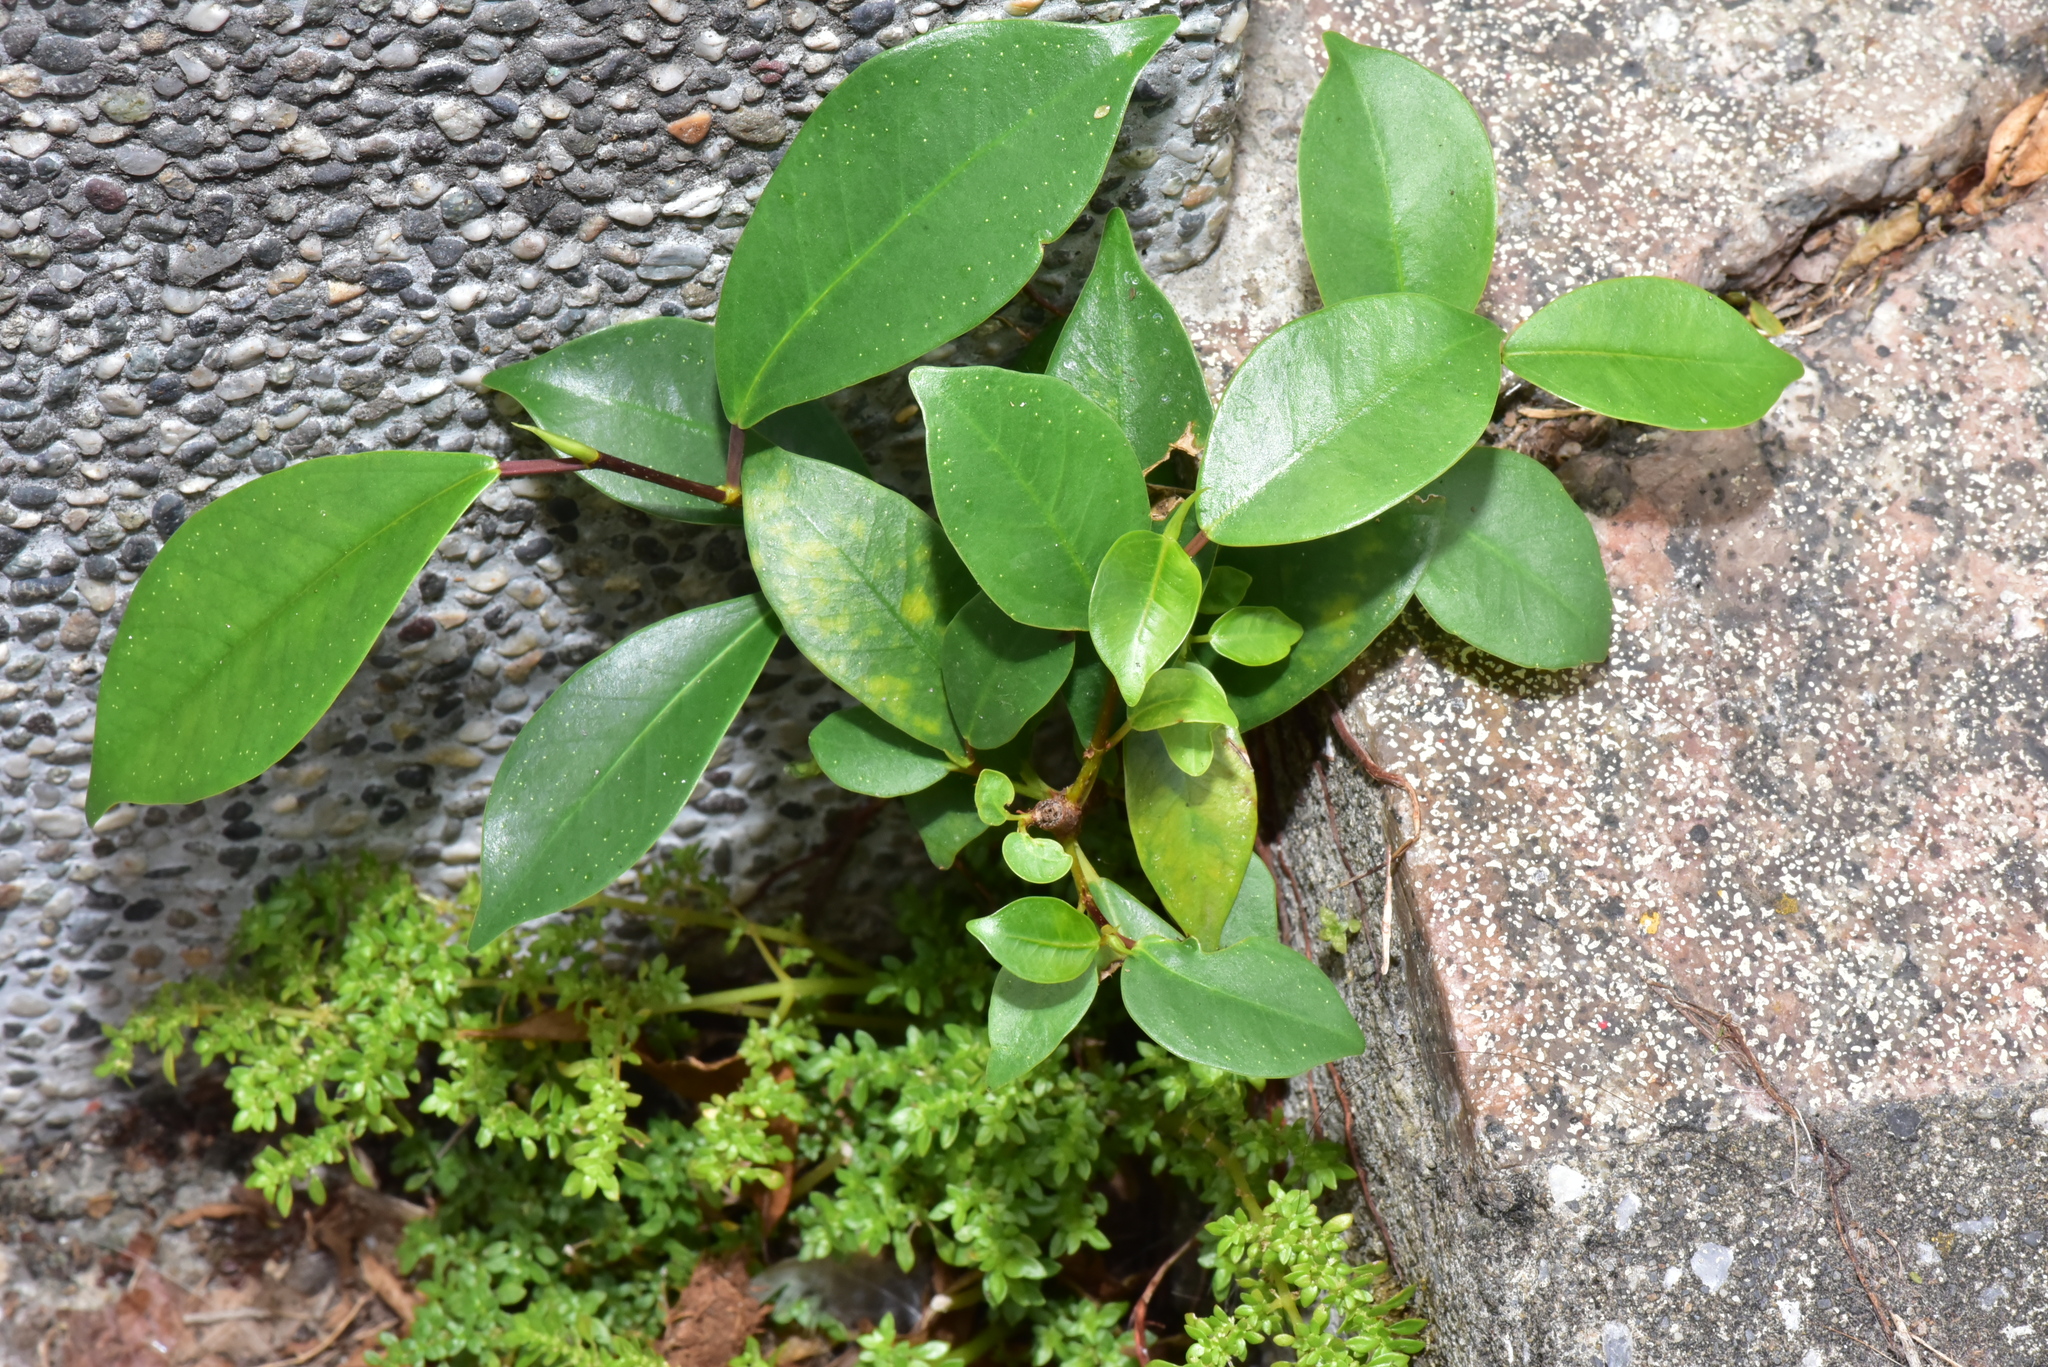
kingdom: Plantae
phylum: Tracheophyta
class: Magnoliopsida
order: Rosales
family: Moraceae
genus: Ficus
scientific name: Ficus microcarpa
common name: Chinese banyan
